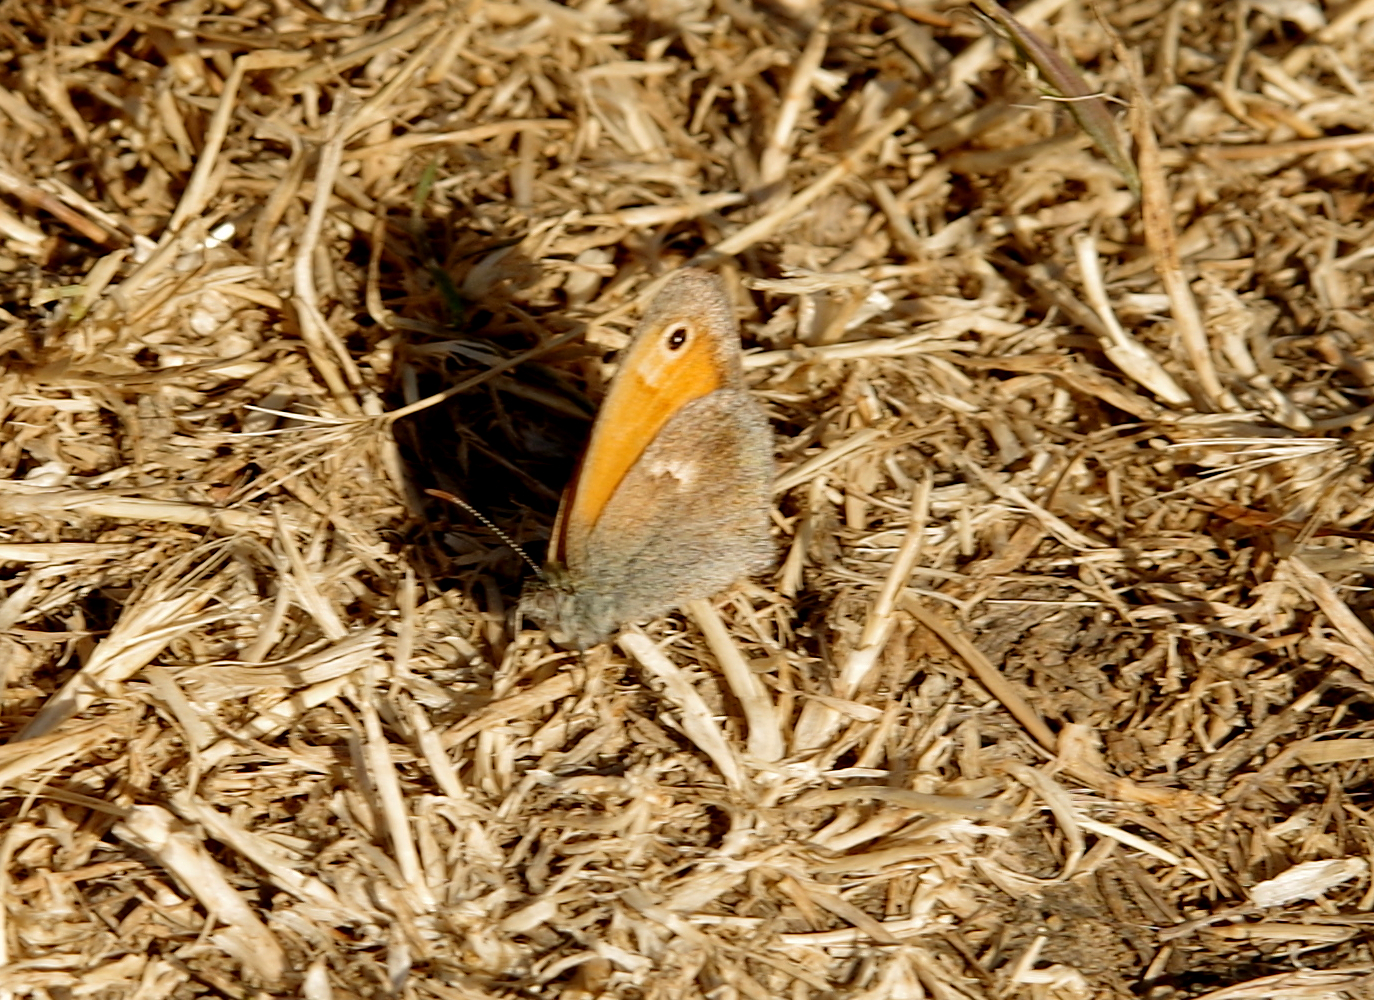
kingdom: Animalia
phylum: Arthropoda
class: Insecta
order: Lepidoptera
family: Nymphalidae
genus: Coenonympha
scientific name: Coenonympha pamphilus
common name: Small heath
